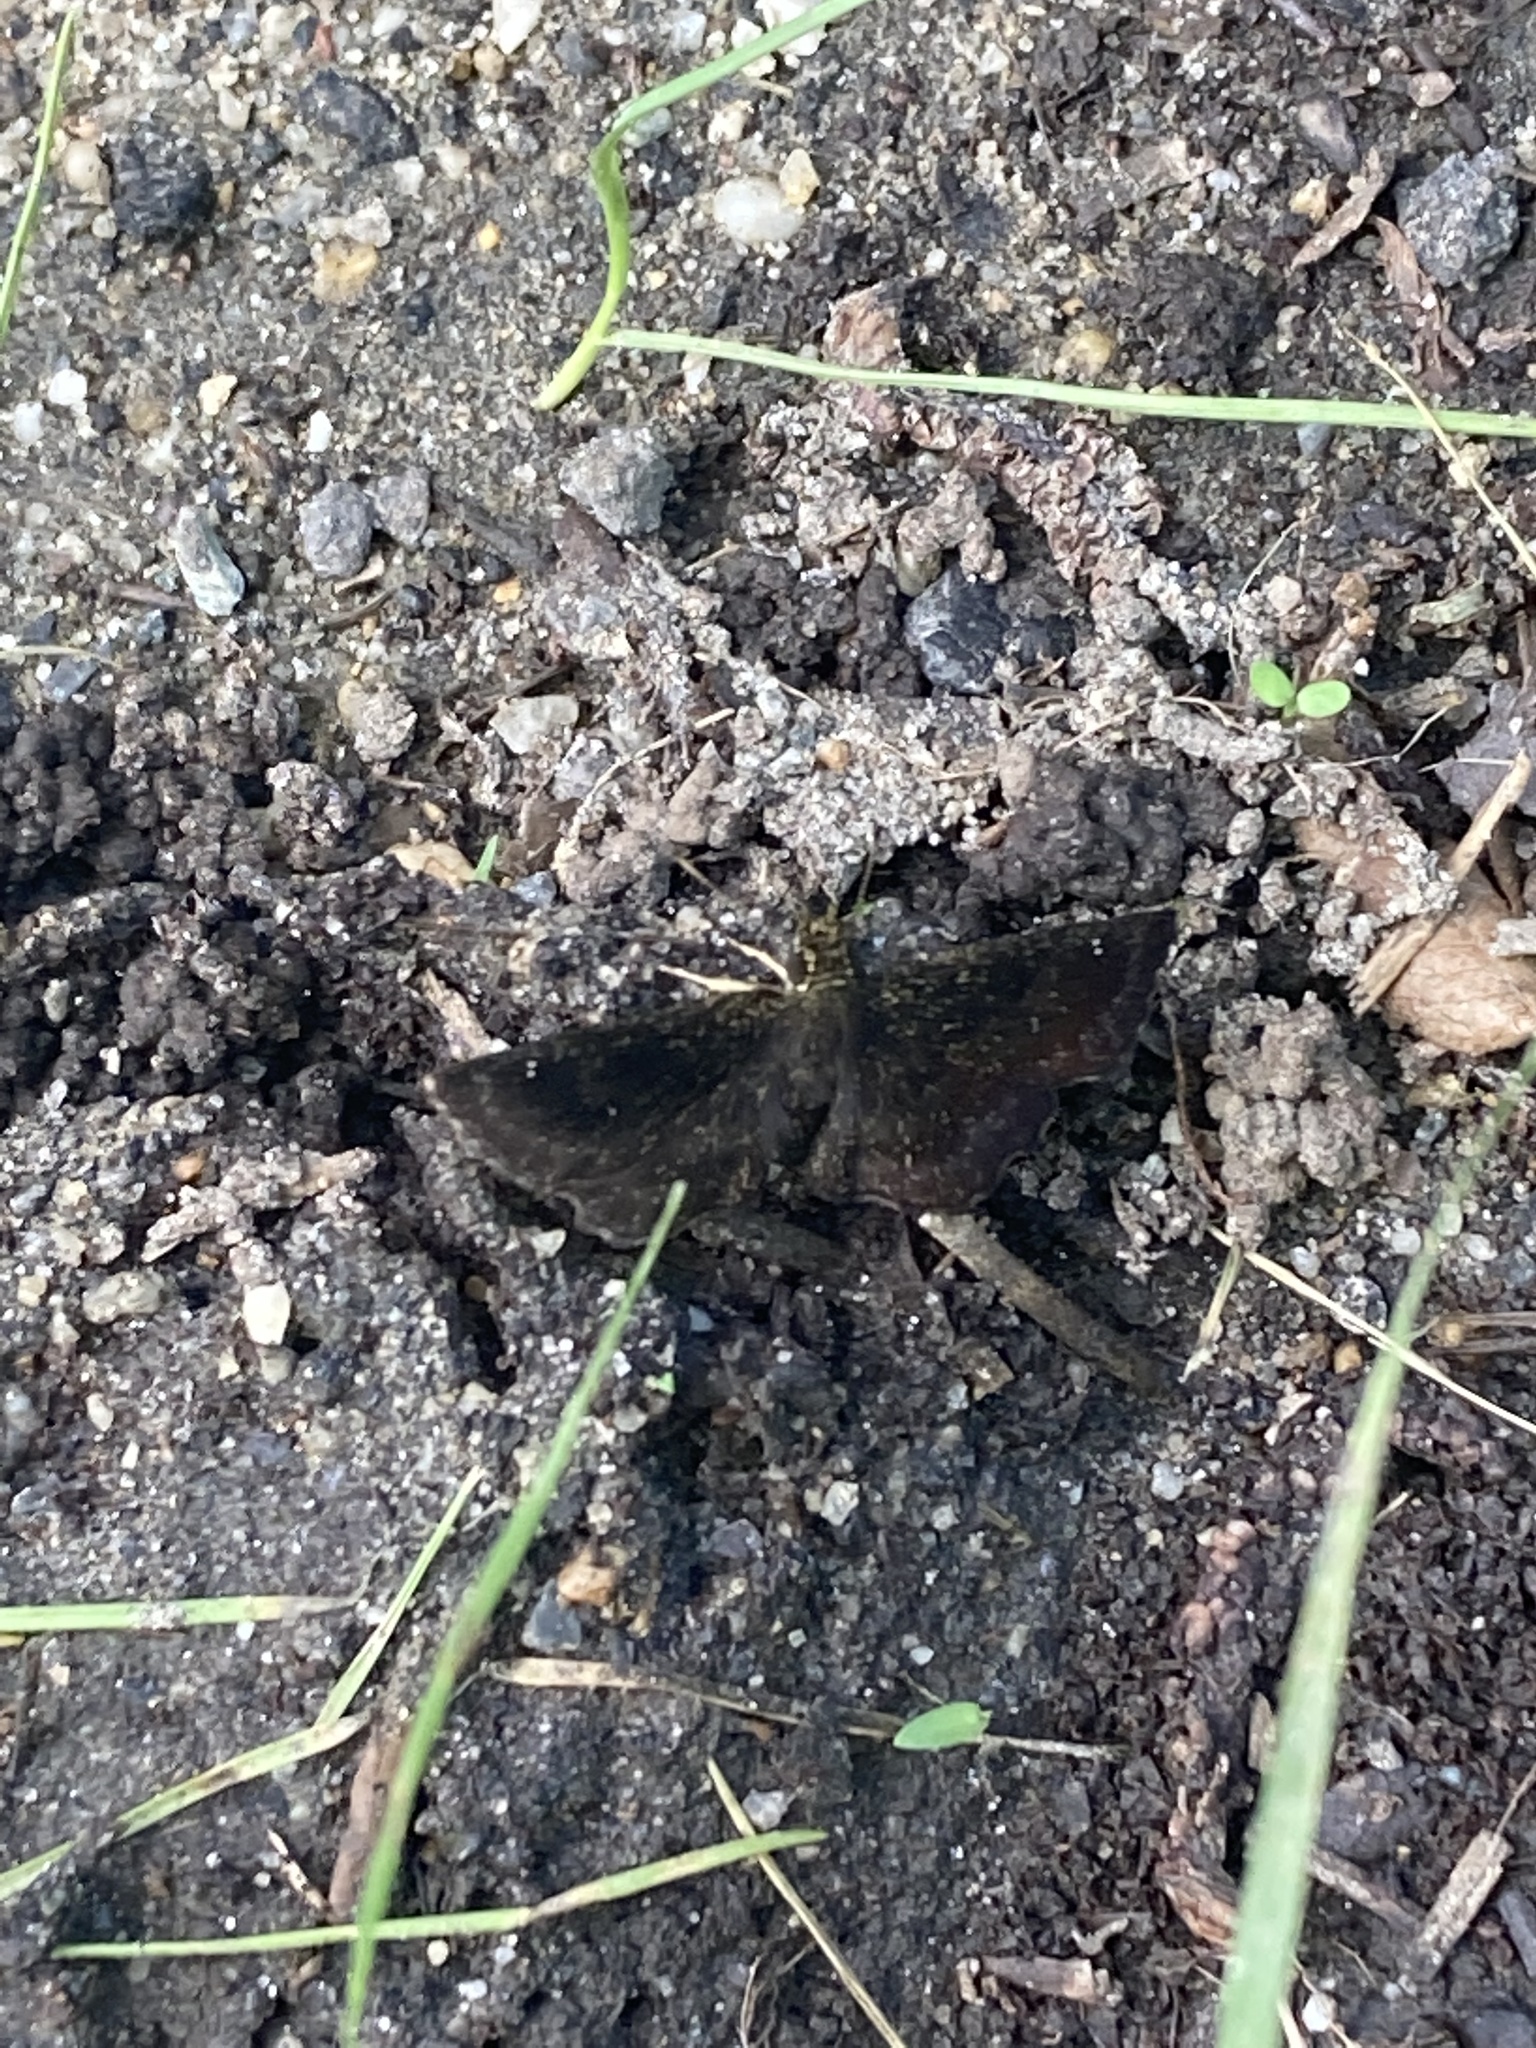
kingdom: Animalia
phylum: Arthropoda
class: Insecta
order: Lepidoptera
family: Hesperiidae
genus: Staphylus
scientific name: Staphylus mazans
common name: Mazans scallopwing
